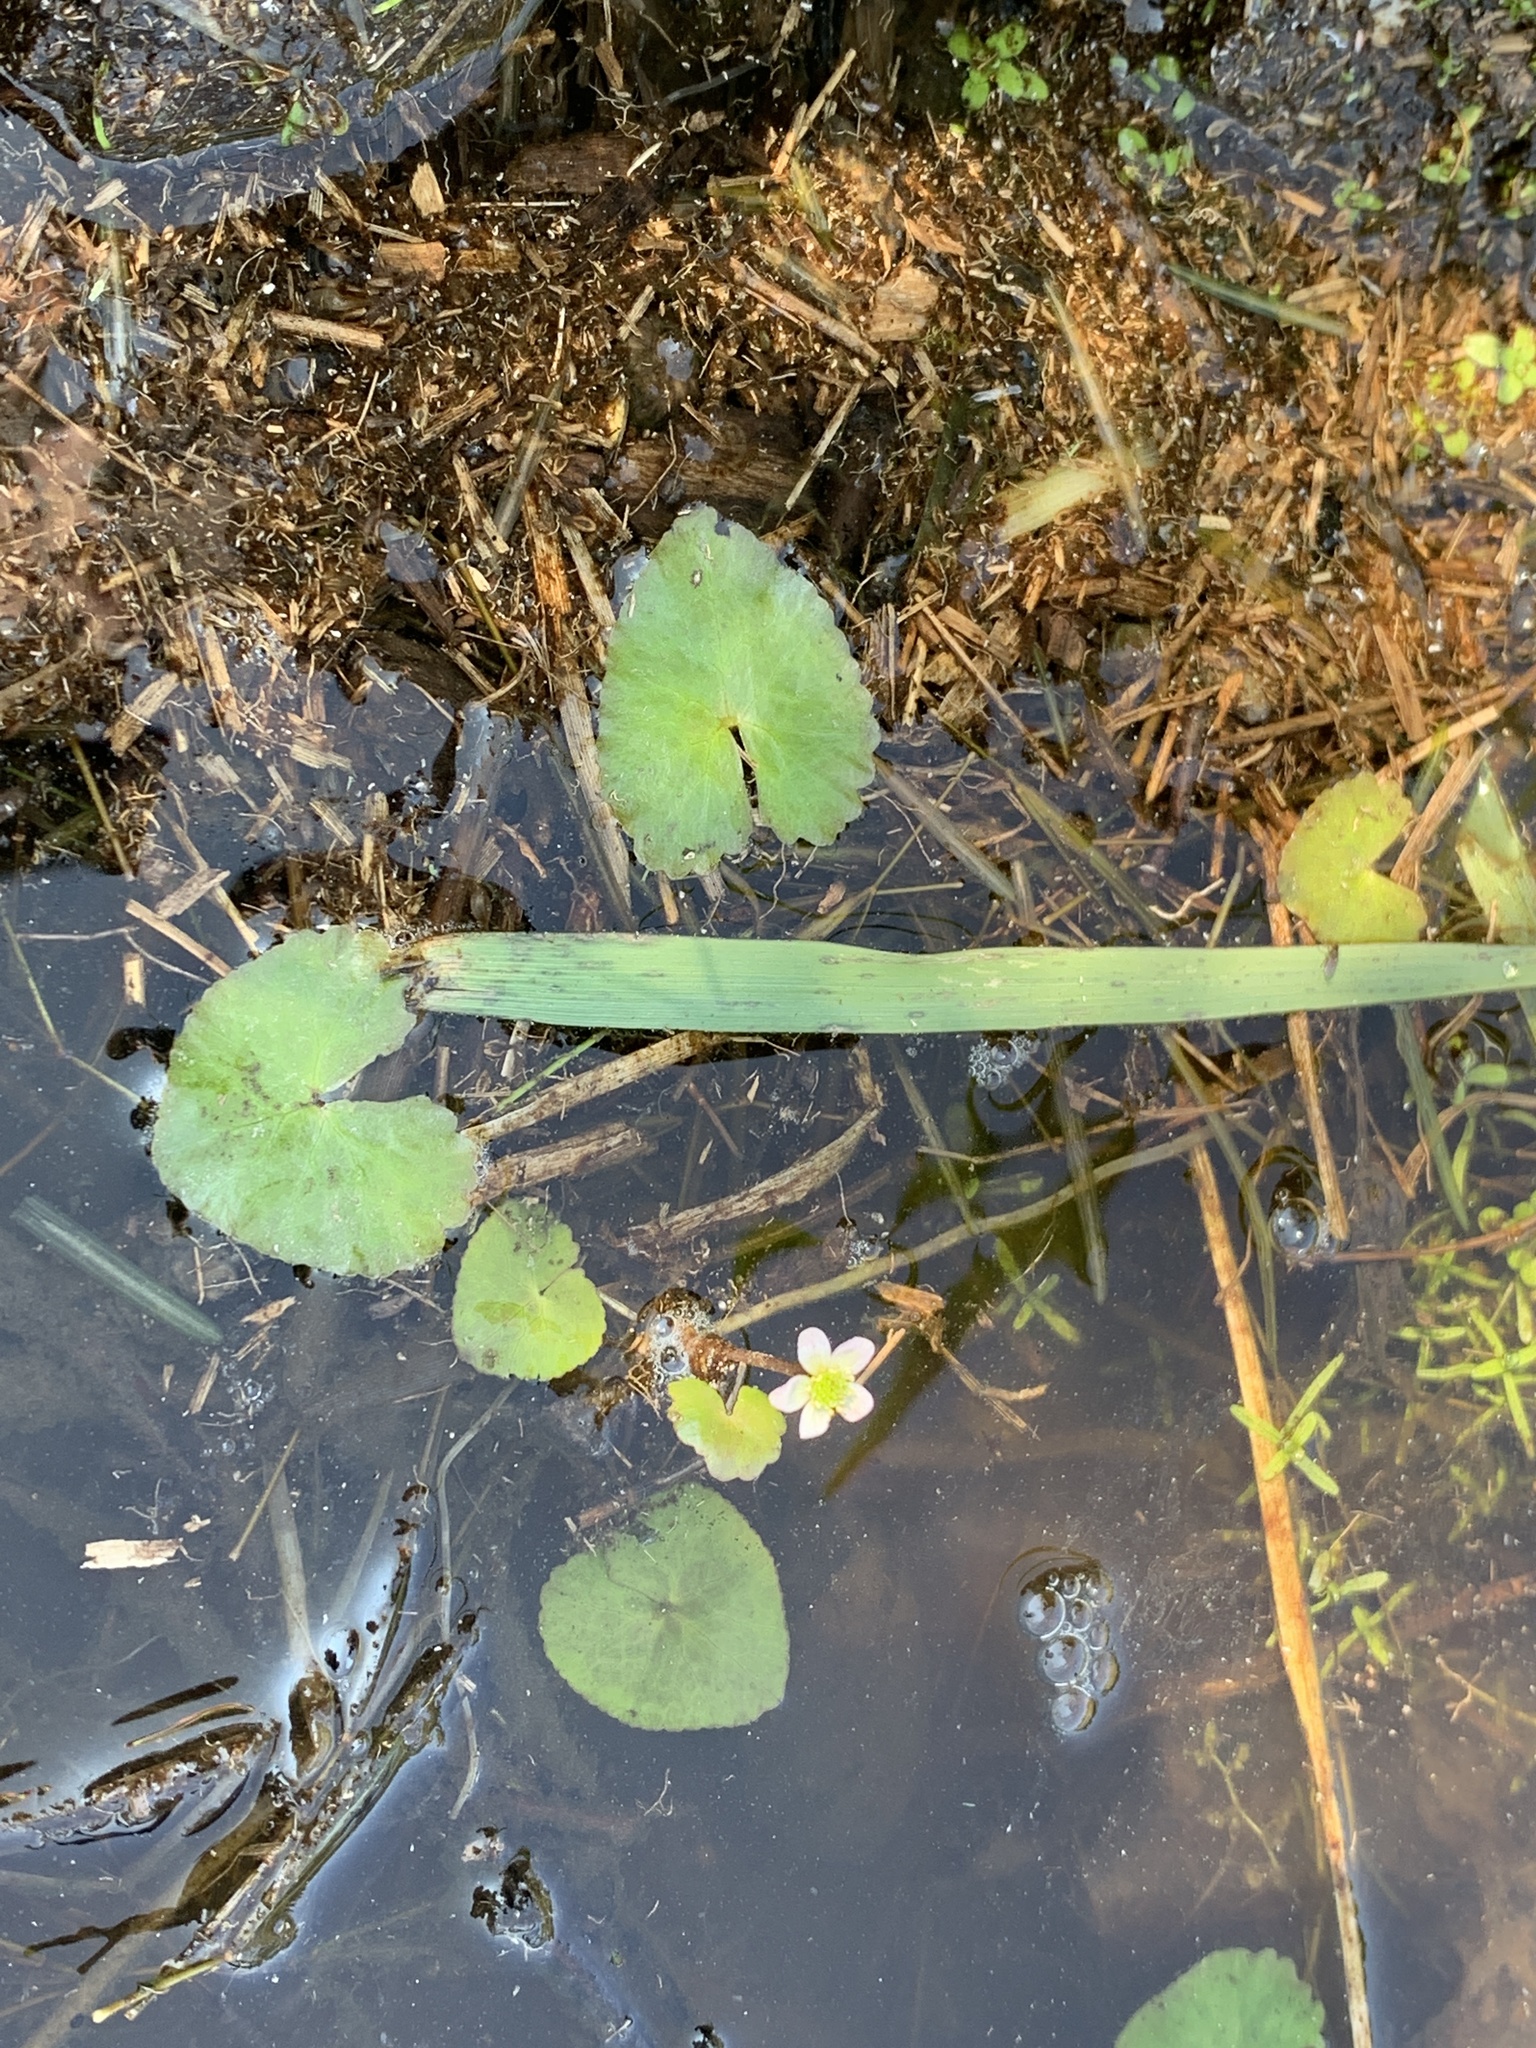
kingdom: Plantae
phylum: Tracheophyta
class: Magnoliopsida
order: Ranunculales
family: Ranunculaceae
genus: Caltha
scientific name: Caltha natans
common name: Floating marsh marigold
